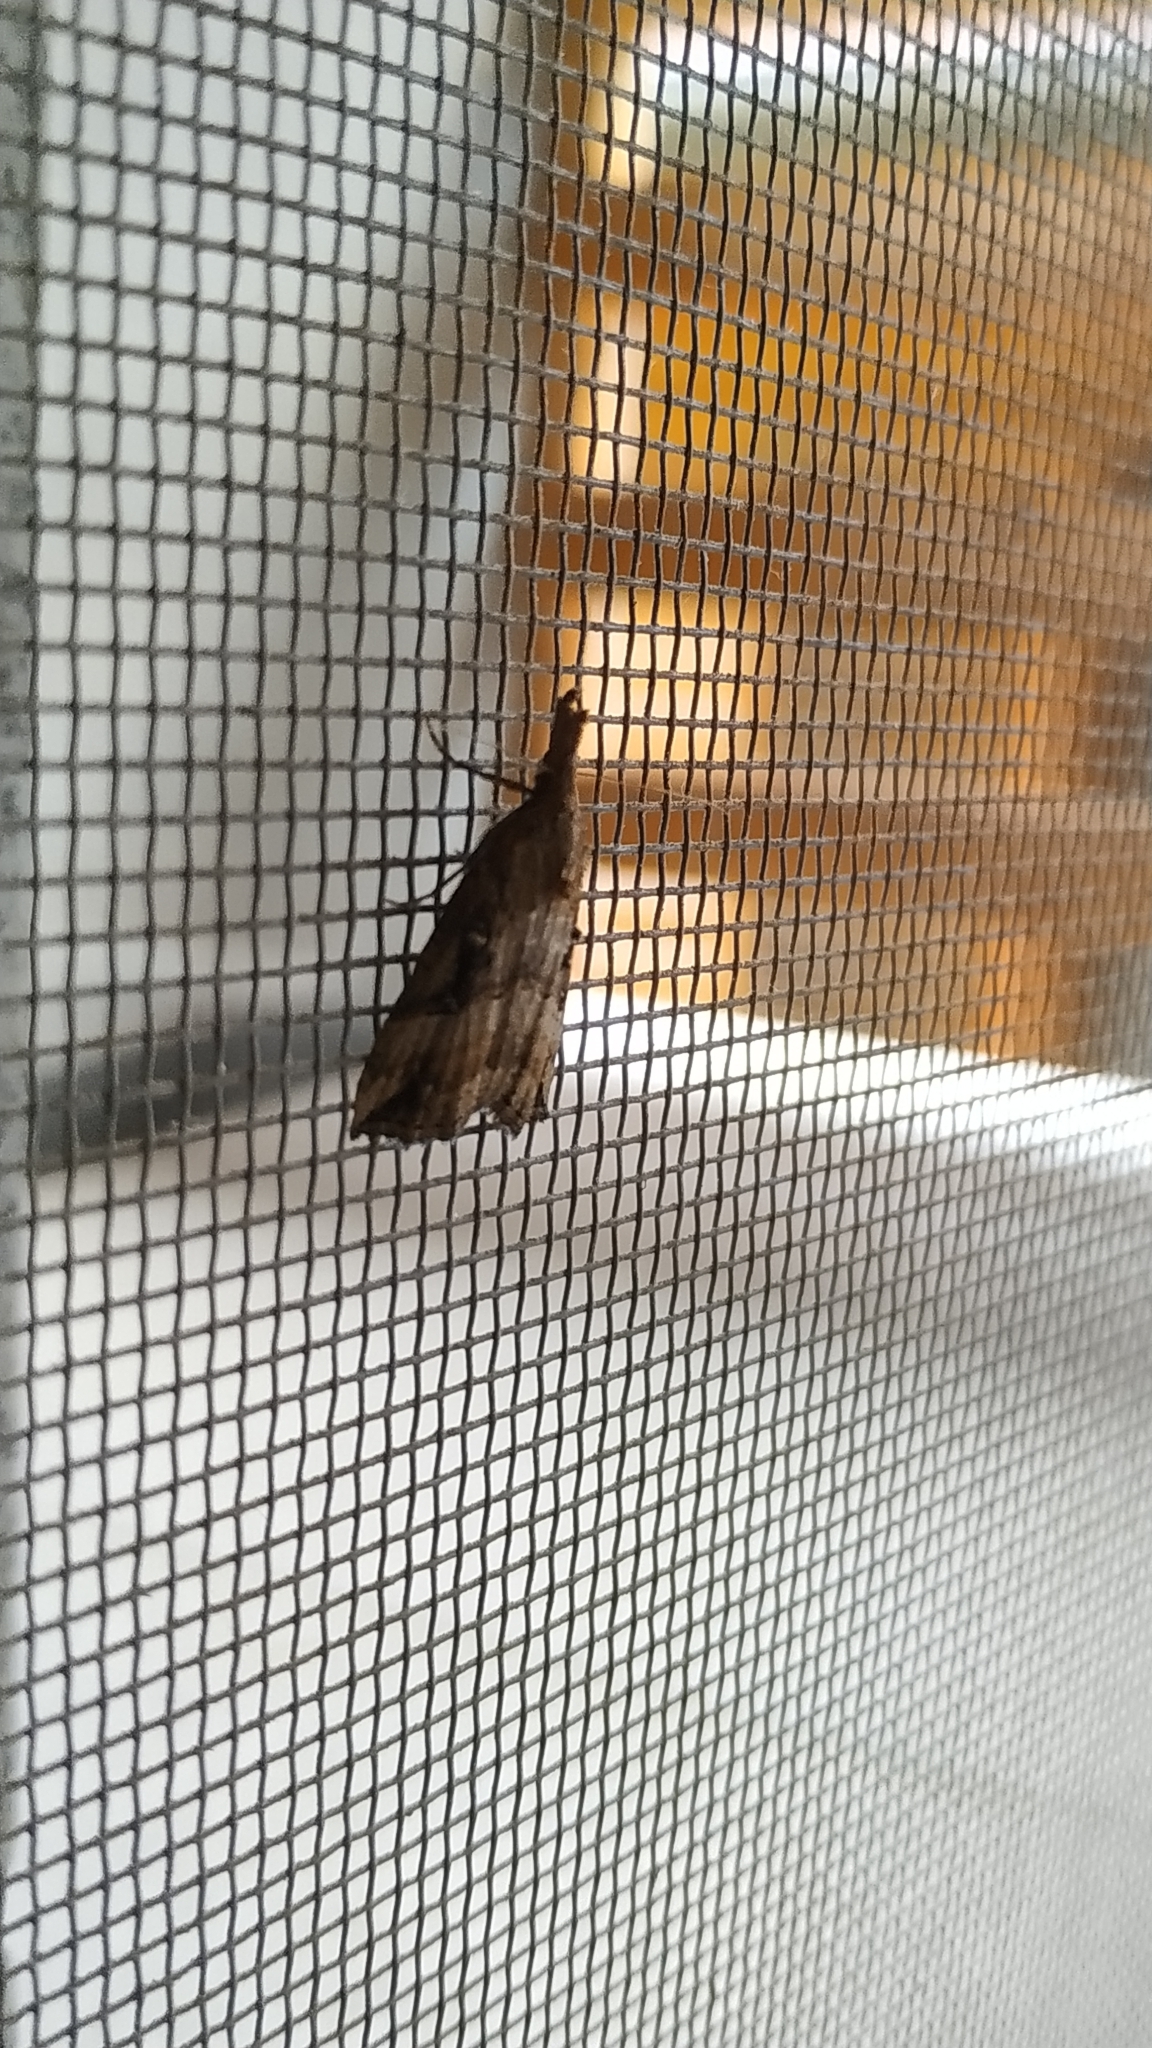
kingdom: Animalia
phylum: Arthropoda
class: Insecta
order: Lepidoptera
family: Erebidae
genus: Hypena
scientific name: Hypena rostralis
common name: Buttoned snout
